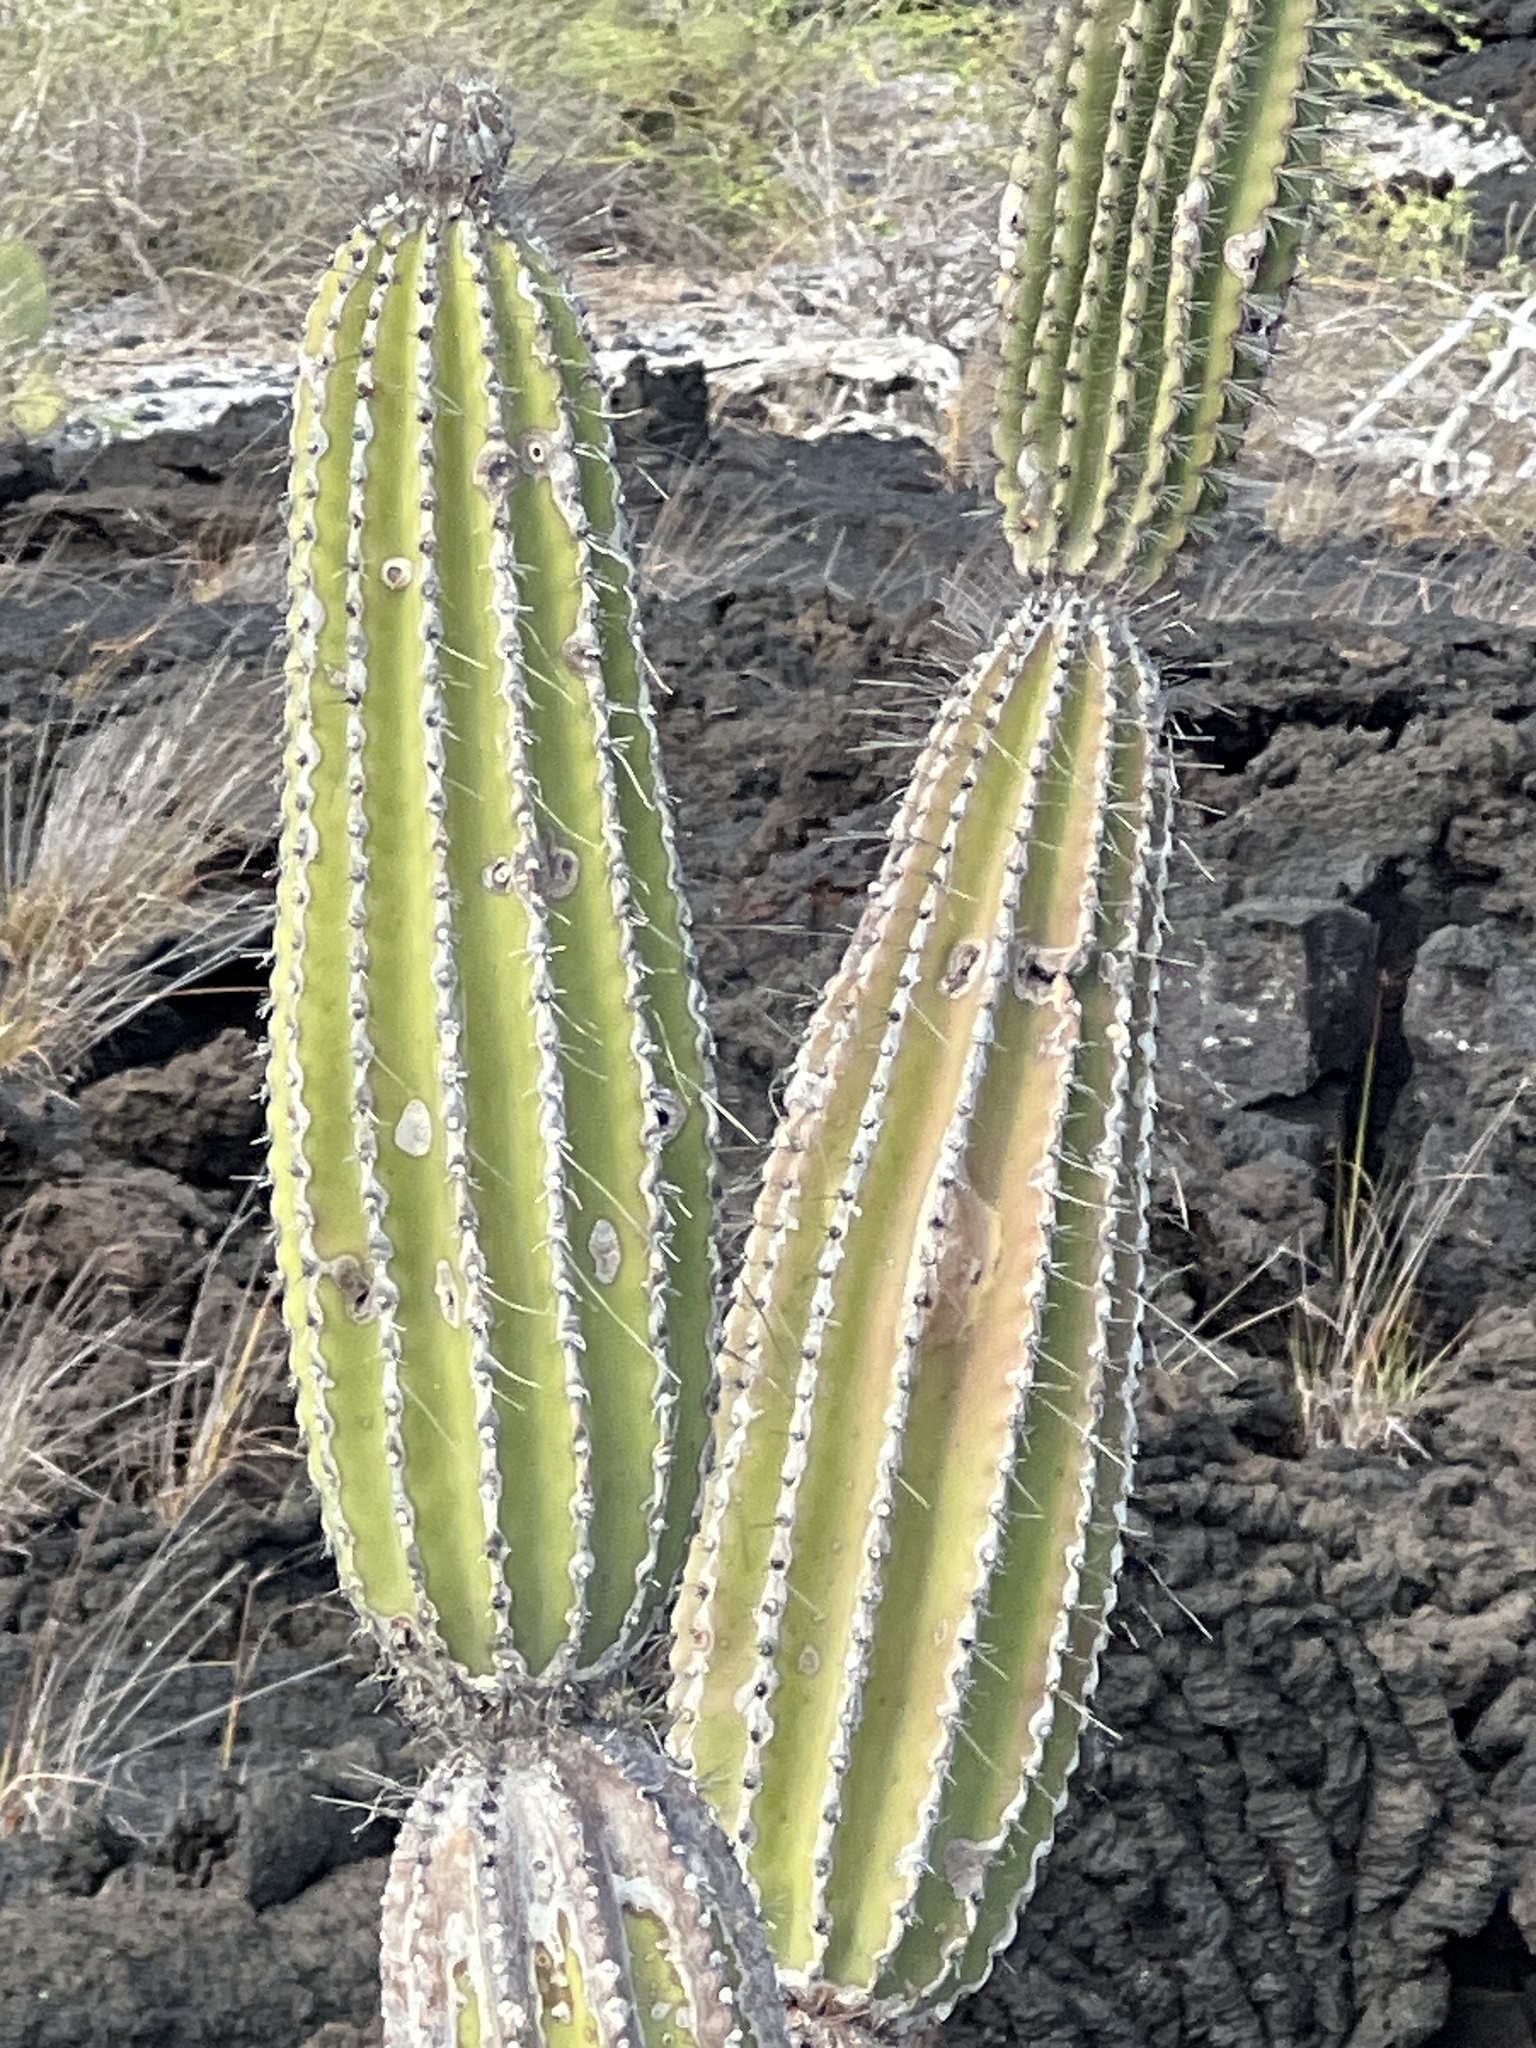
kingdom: Plantae
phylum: Tracheophyta
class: Magnoliopsida
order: Caryophyllales
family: Cactaceae
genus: Jasminocereus
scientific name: Jasminocereus thouarsii
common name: Candelabra cactus
